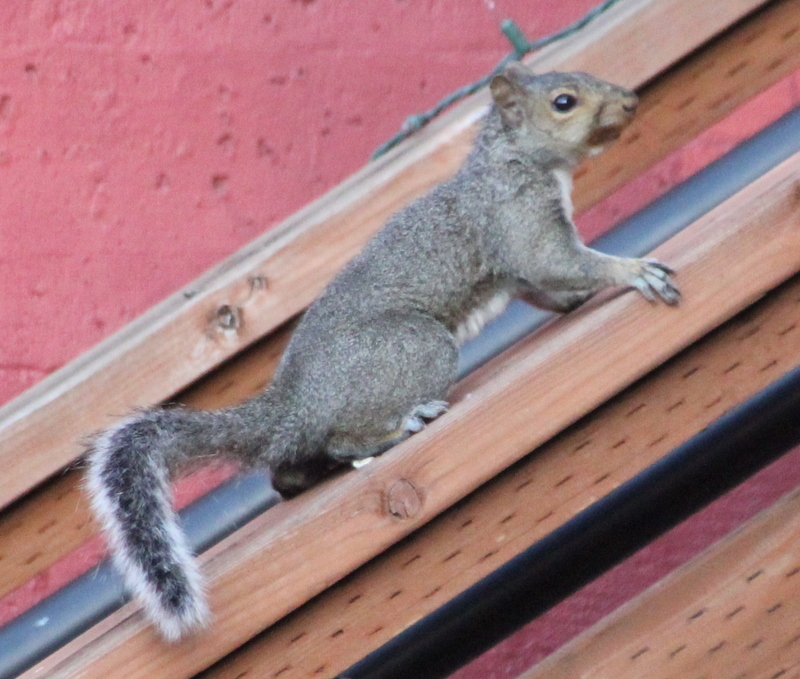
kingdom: Animalia
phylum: Chordata
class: Mammalia
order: Rodentia
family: Sciuridae
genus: Sciurus
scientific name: Sciurus carolinensis
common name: Eastern gray squirrel
